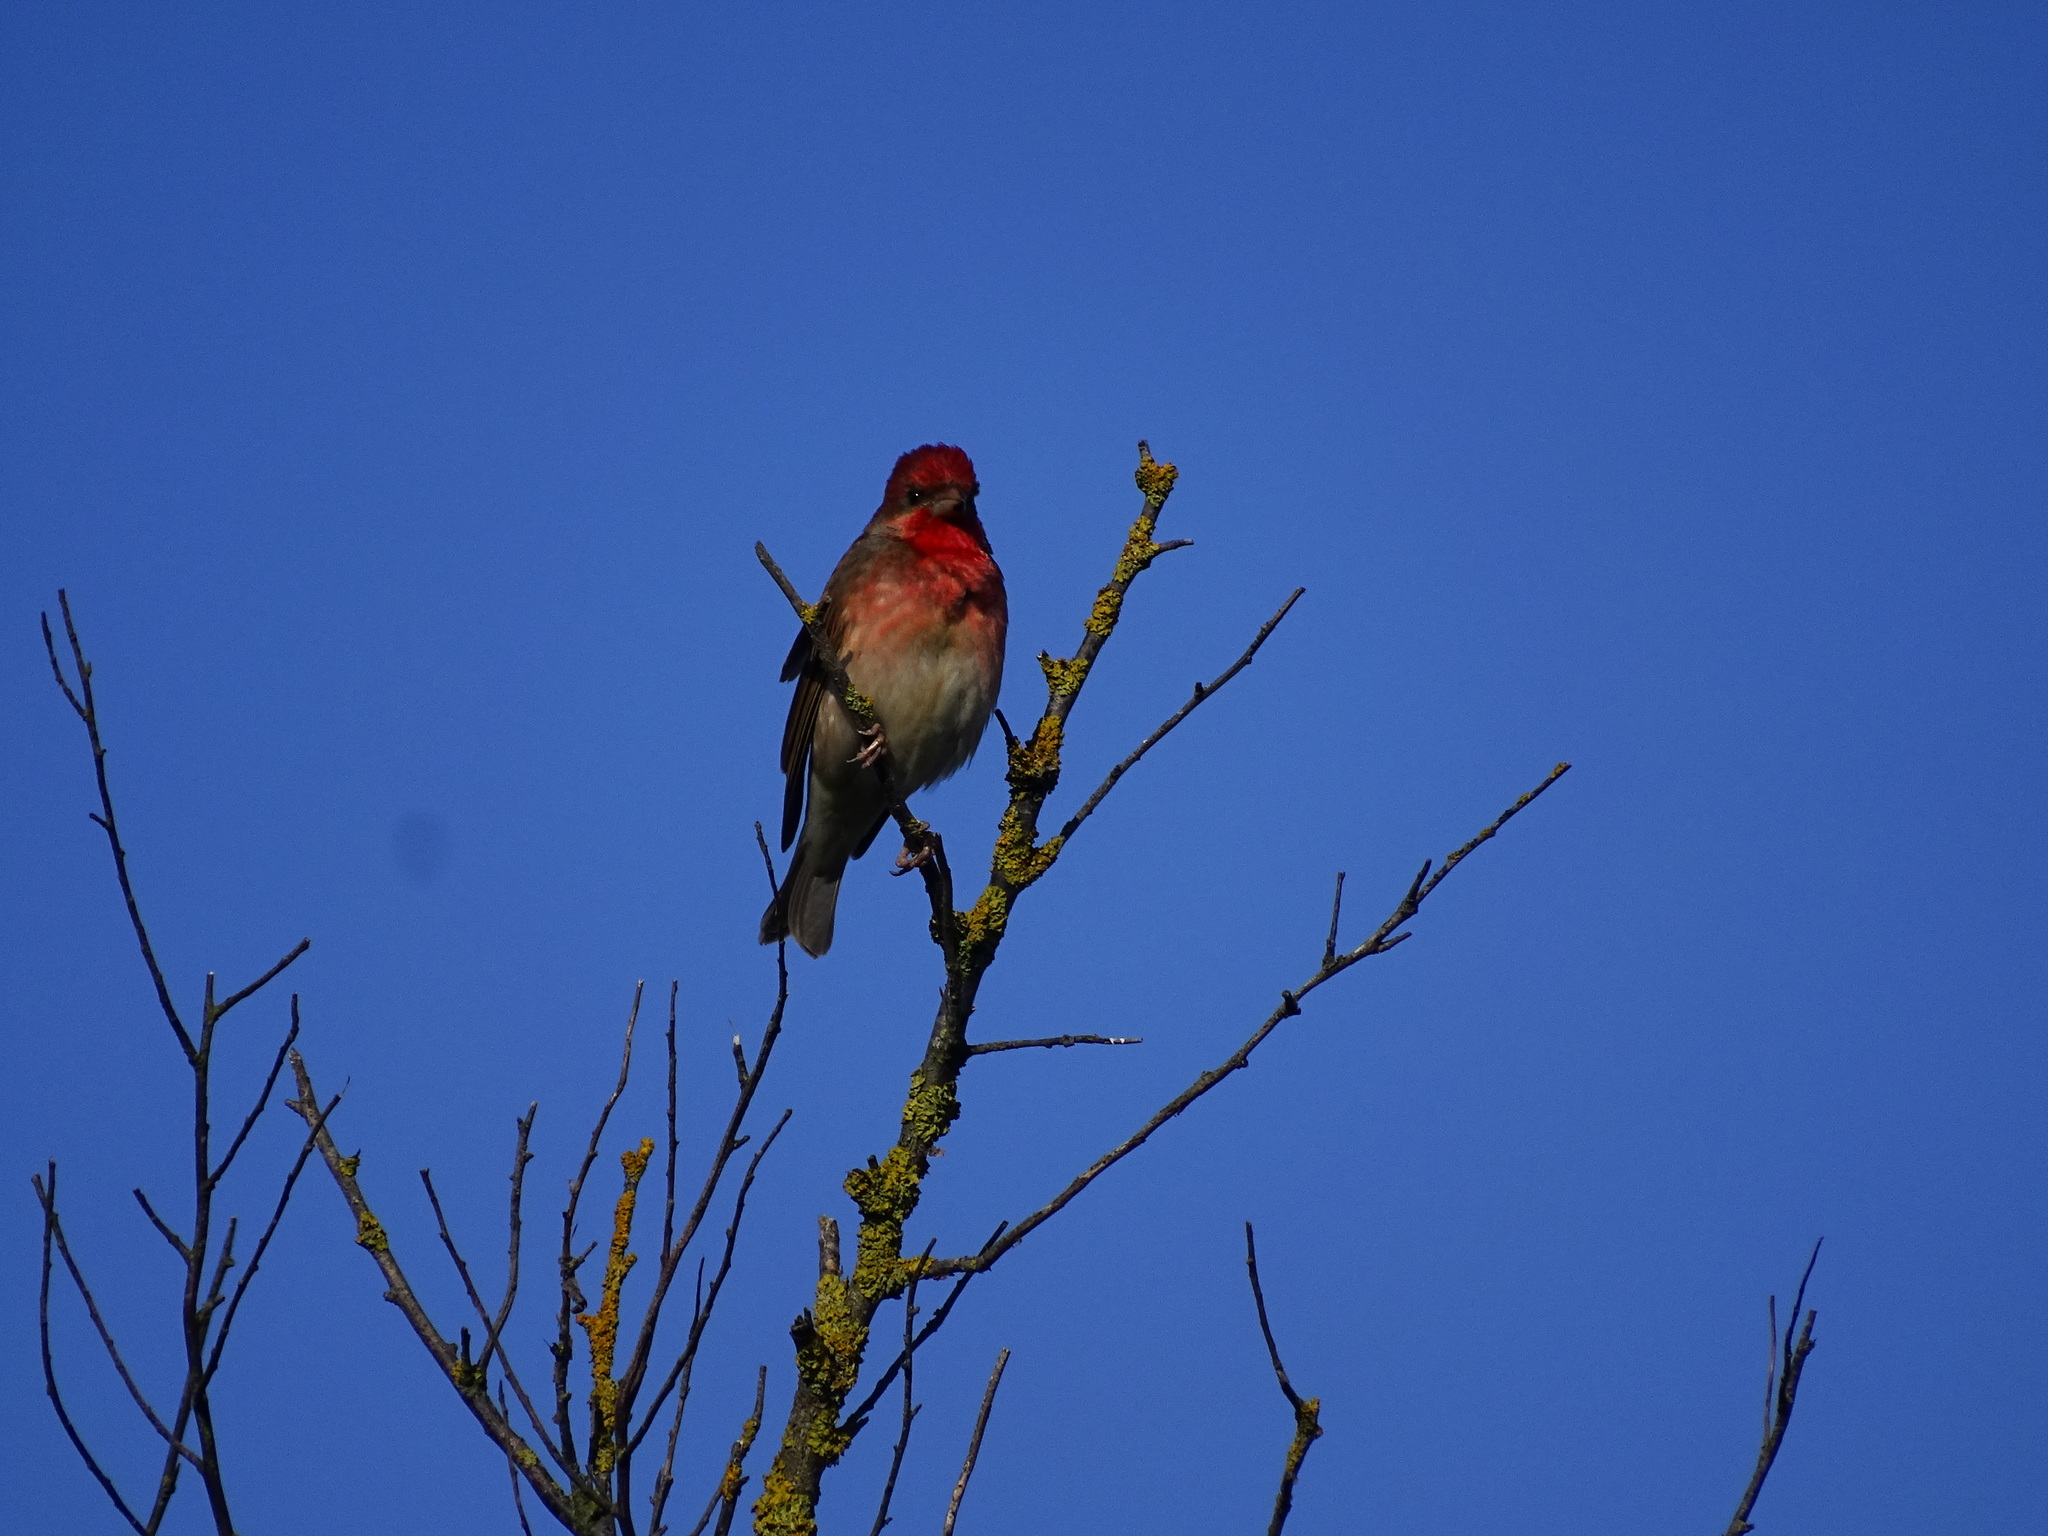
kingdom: Animalia
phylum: Chordata
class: Aves
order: Passeriformes
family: Fringillidae
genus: Carpodacus
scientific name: Carpodacus erythrinus
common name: Common rosefinch
